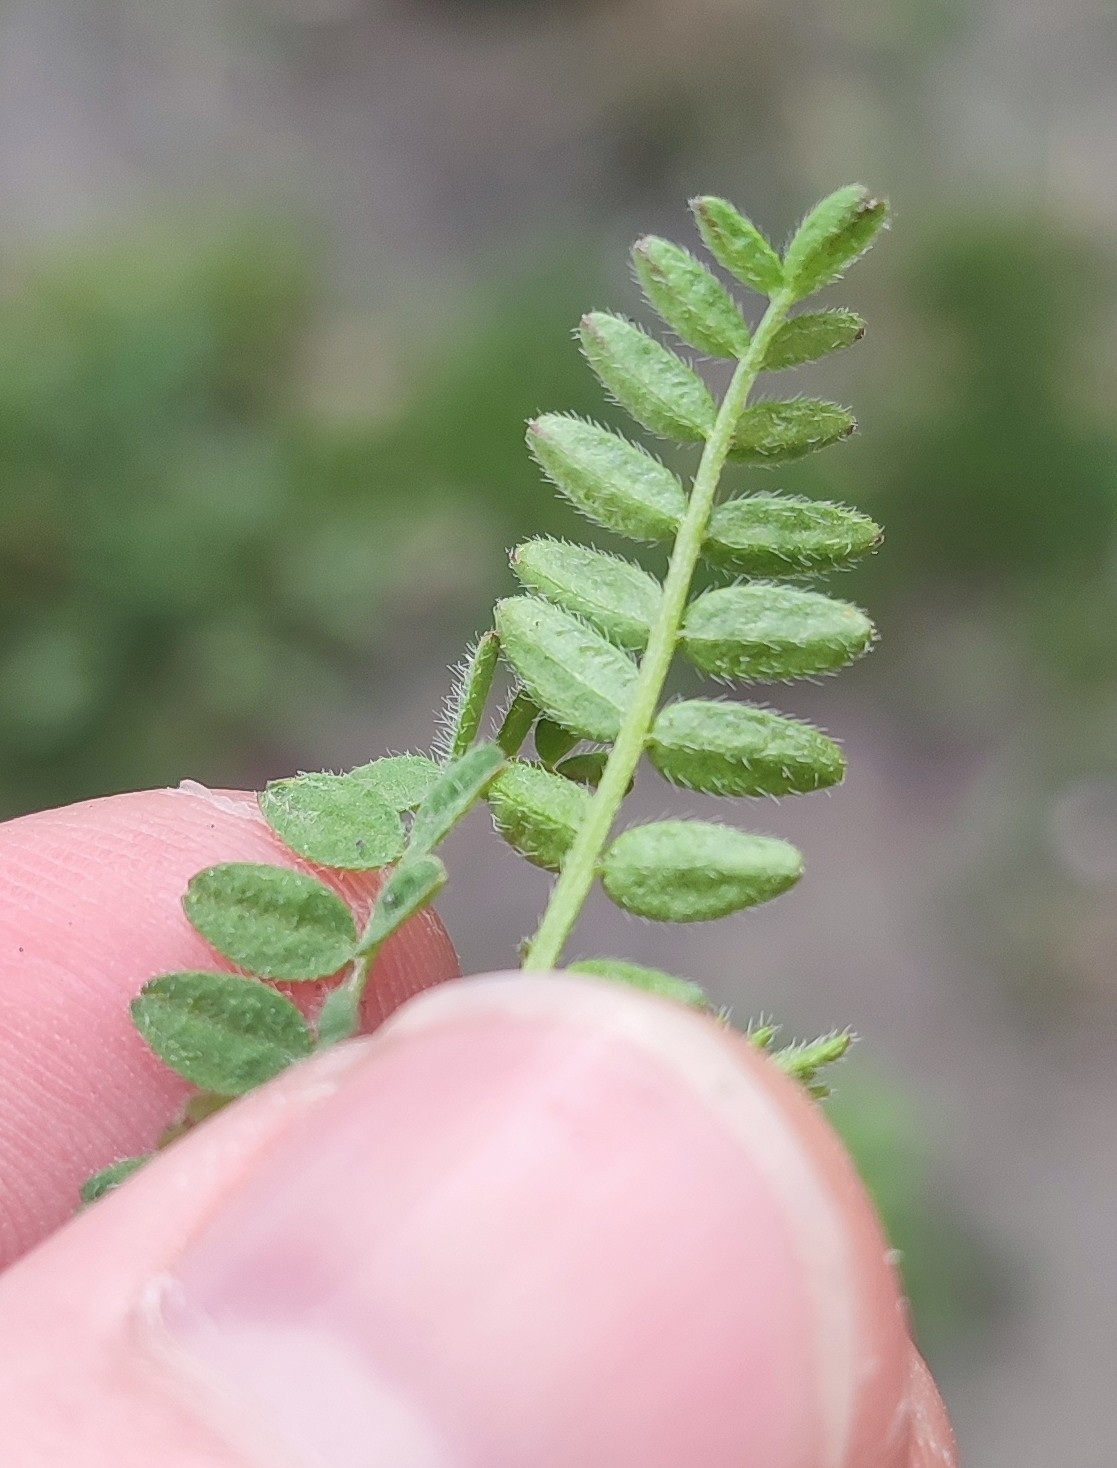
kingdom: Plantae
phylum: Tracheophyta
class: Magnoliopsida
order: Fabales
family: Fabaceae
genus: Astragalus
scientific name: Astragalus danicus
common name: Purple milk-vetch
